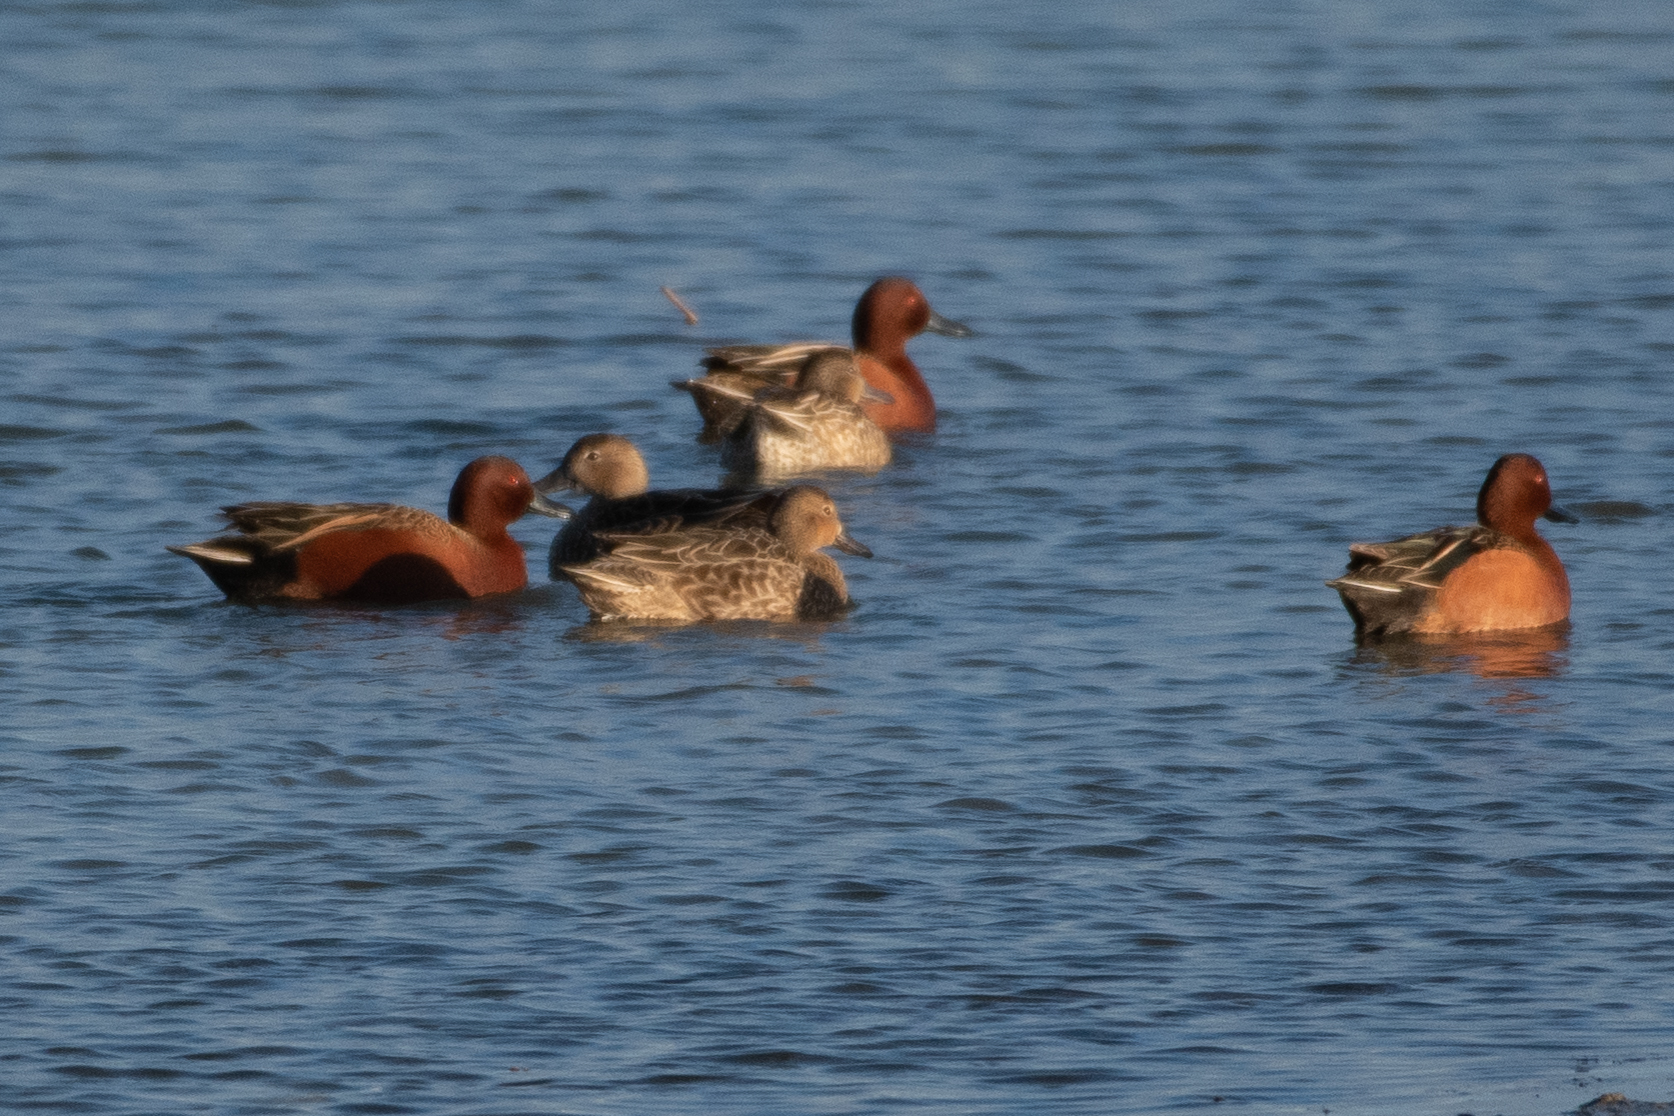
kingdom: Animalia
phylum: Chordata
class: Aves
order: Anseriformes
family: Anatidae
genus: Spatula
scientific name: Spatula cyanoptera
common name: Cinnamon teal
